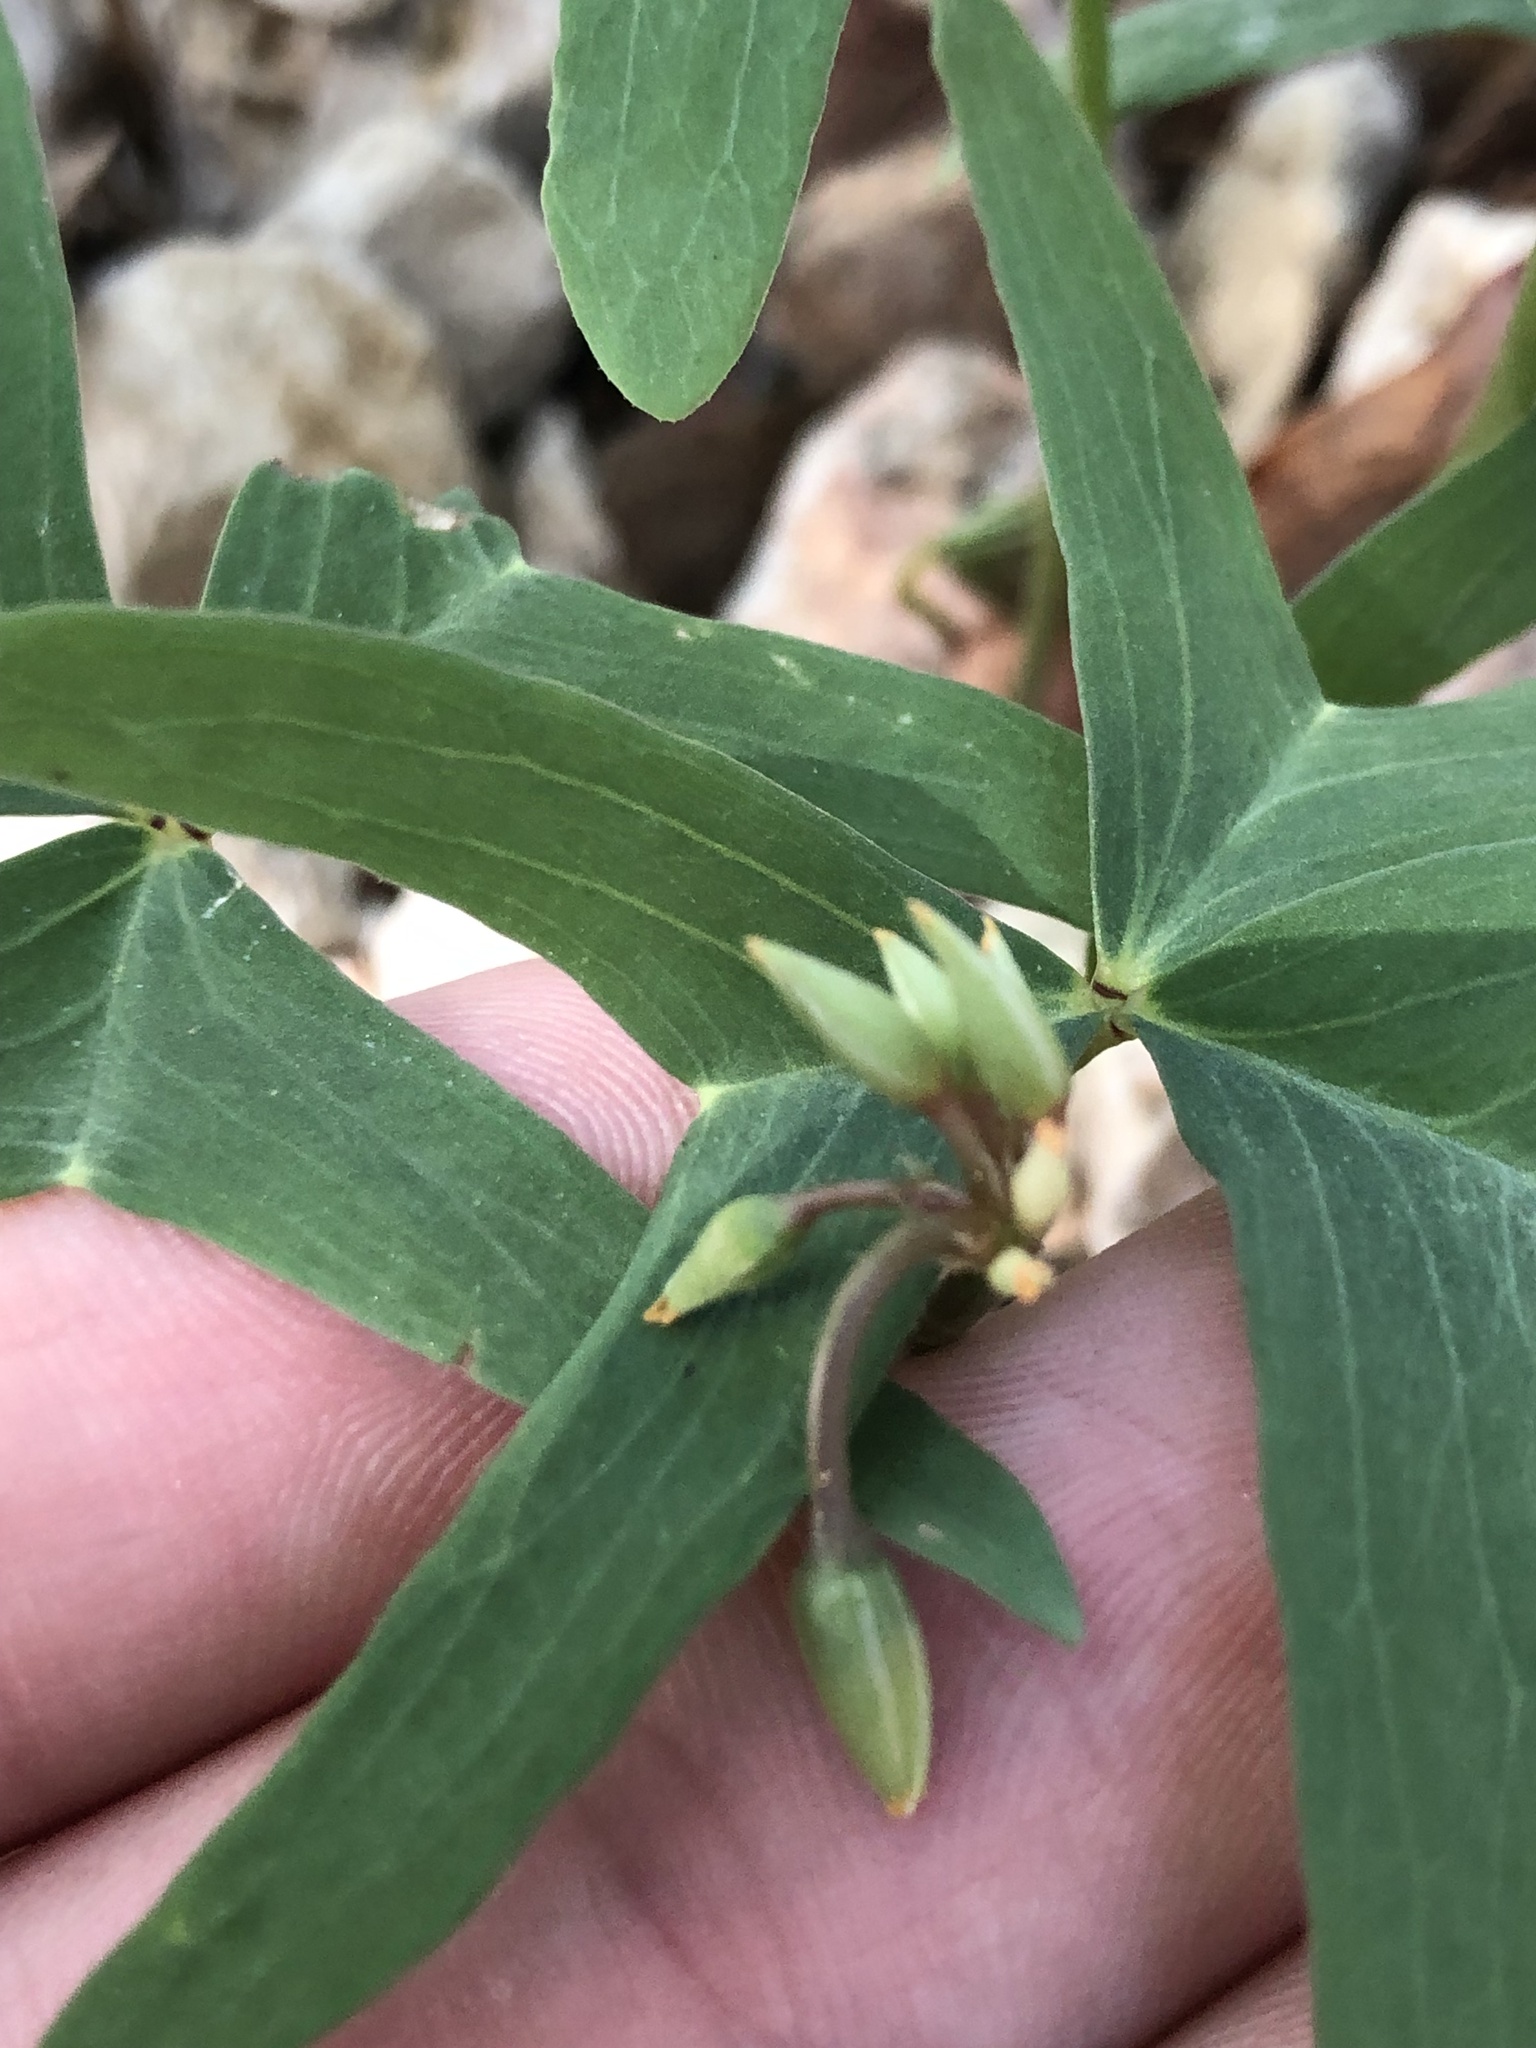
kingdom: Plantae
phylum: Tracheophyta
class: Magnoliopsida
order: Oxalidales
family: Oxalidaceae
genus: Oxalis
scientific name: Oxalis drummondii
